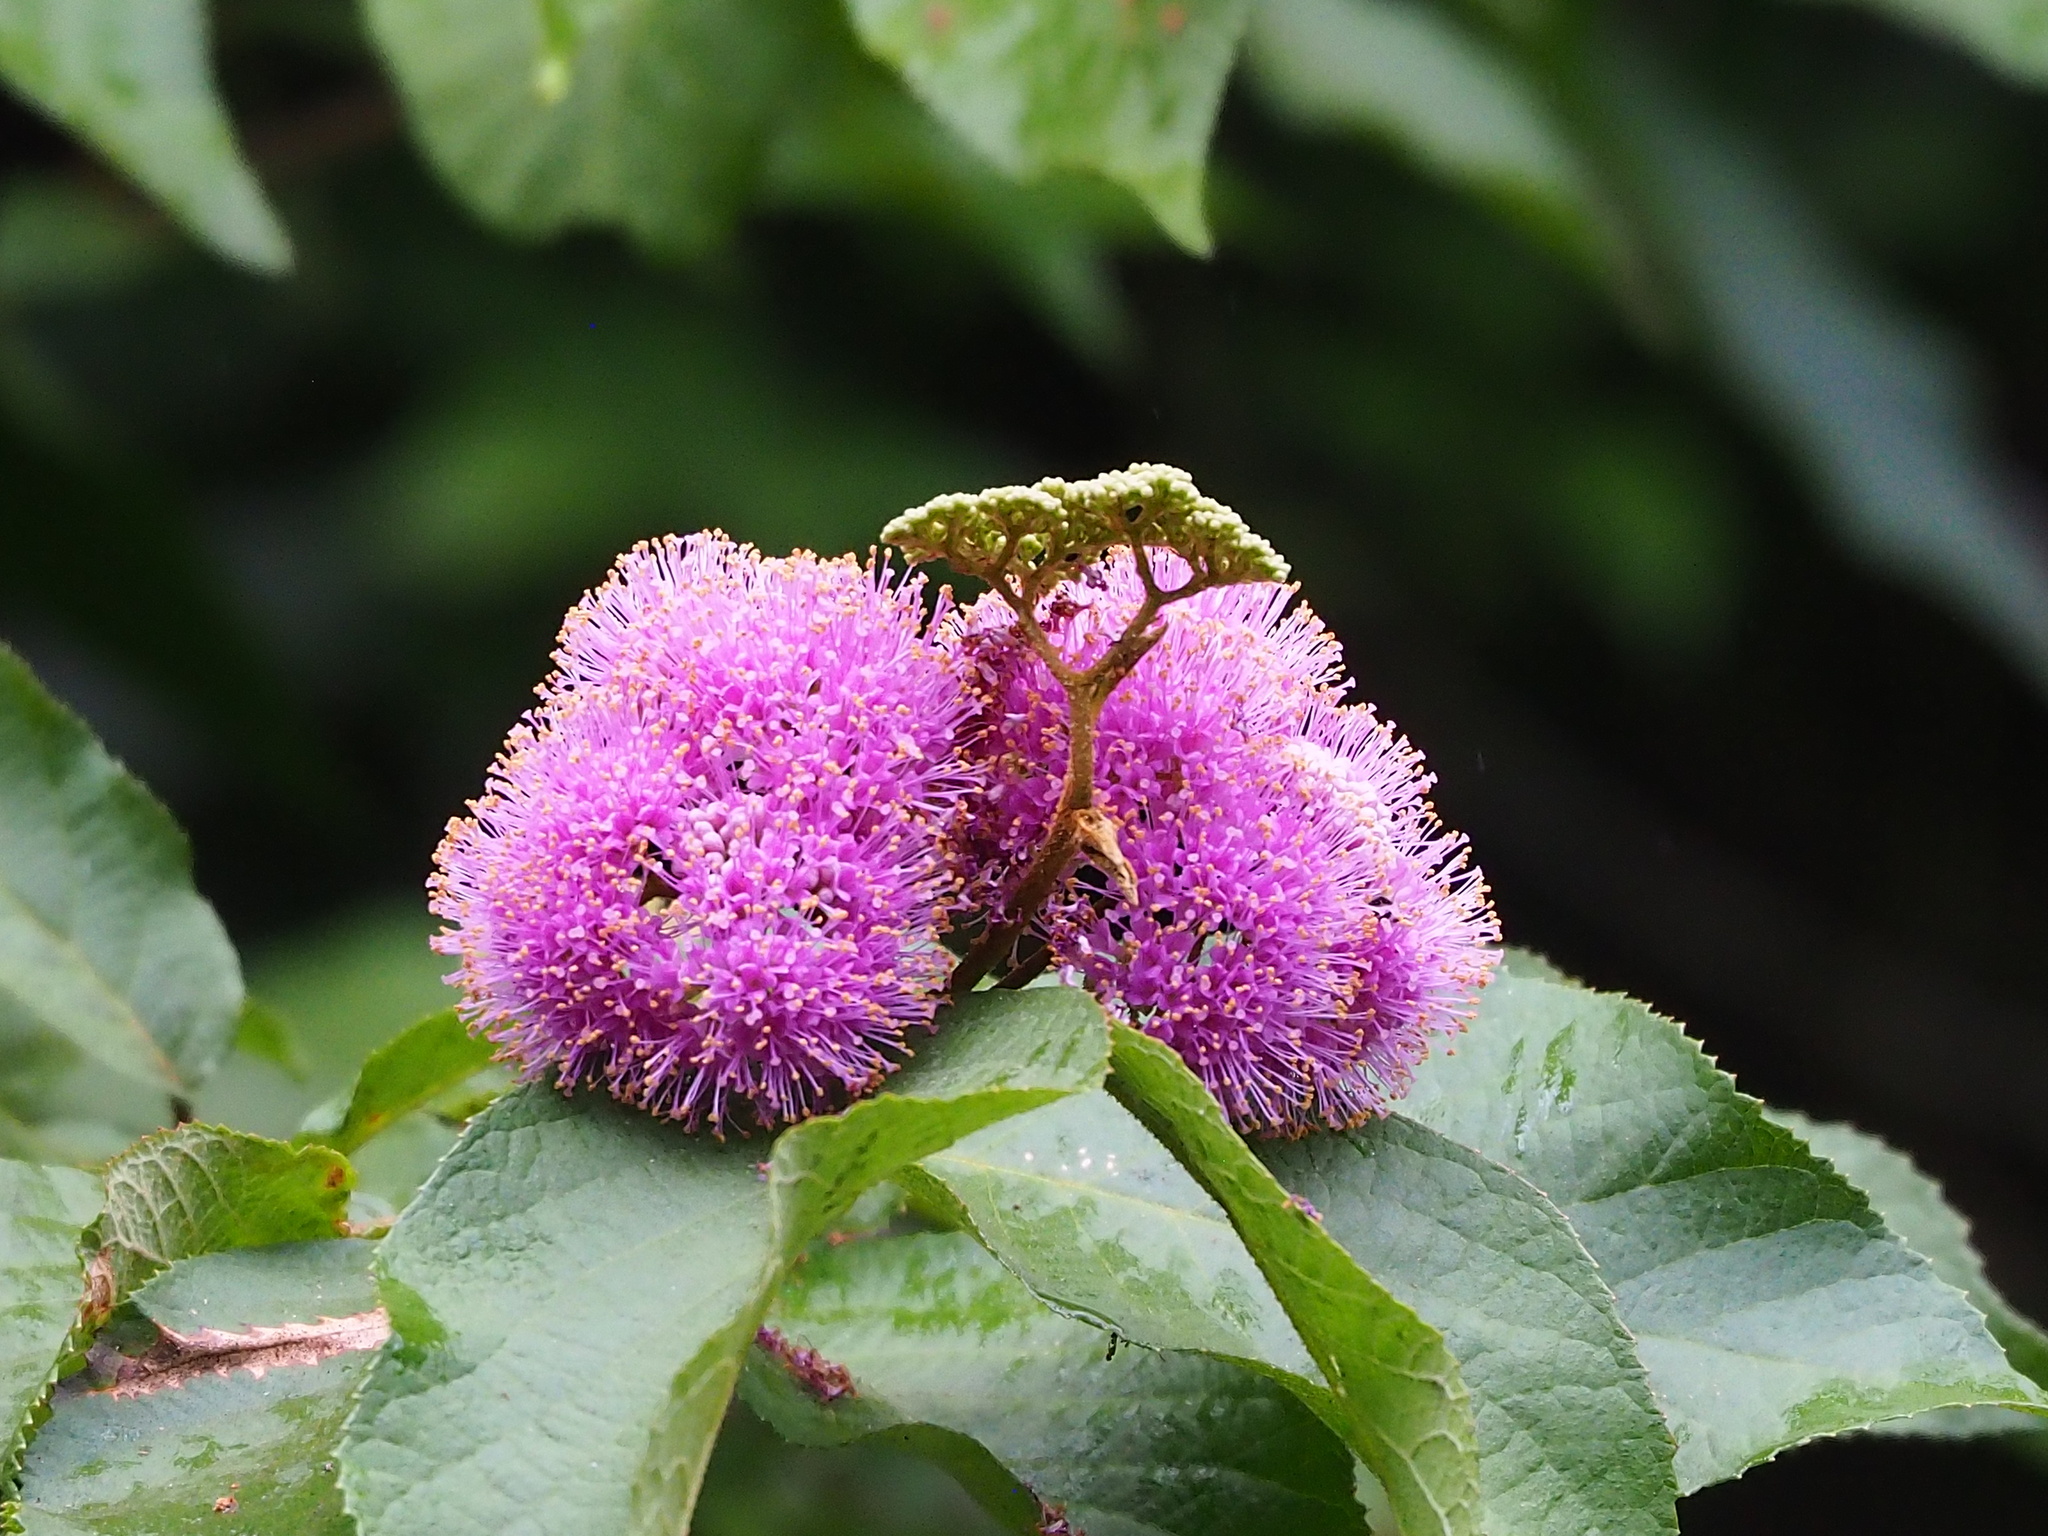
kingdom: Plantae
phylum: Tracheophyta
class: Magnoliopsida
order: Lamiales
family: Lamiaceae
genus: Callicarpa
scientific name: Callicarpa pedunculata
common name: Velvetleaf
